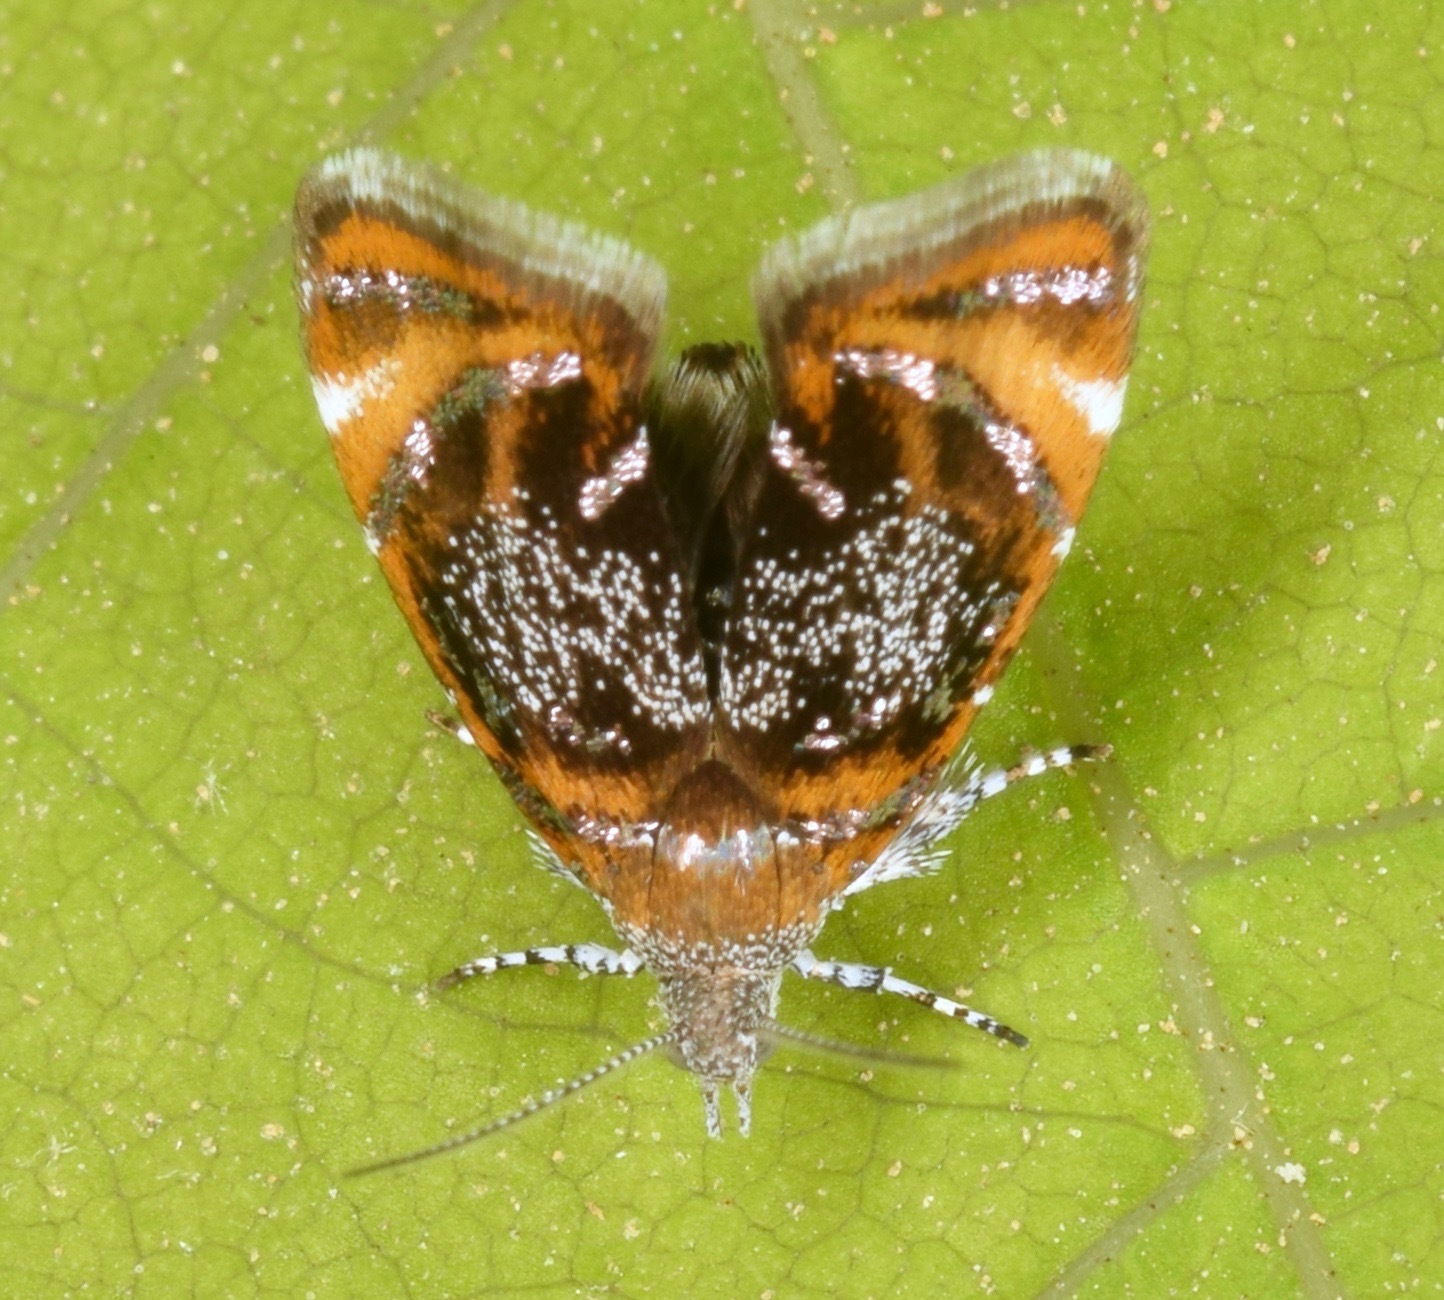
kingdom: Animalia
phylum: Arthropoda
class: Insecta
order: Lepidoptera
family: Choreutidae
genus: Prochoreutis
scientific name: Prochoreutis inflatella
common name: Skullcap skeletonizer moth
